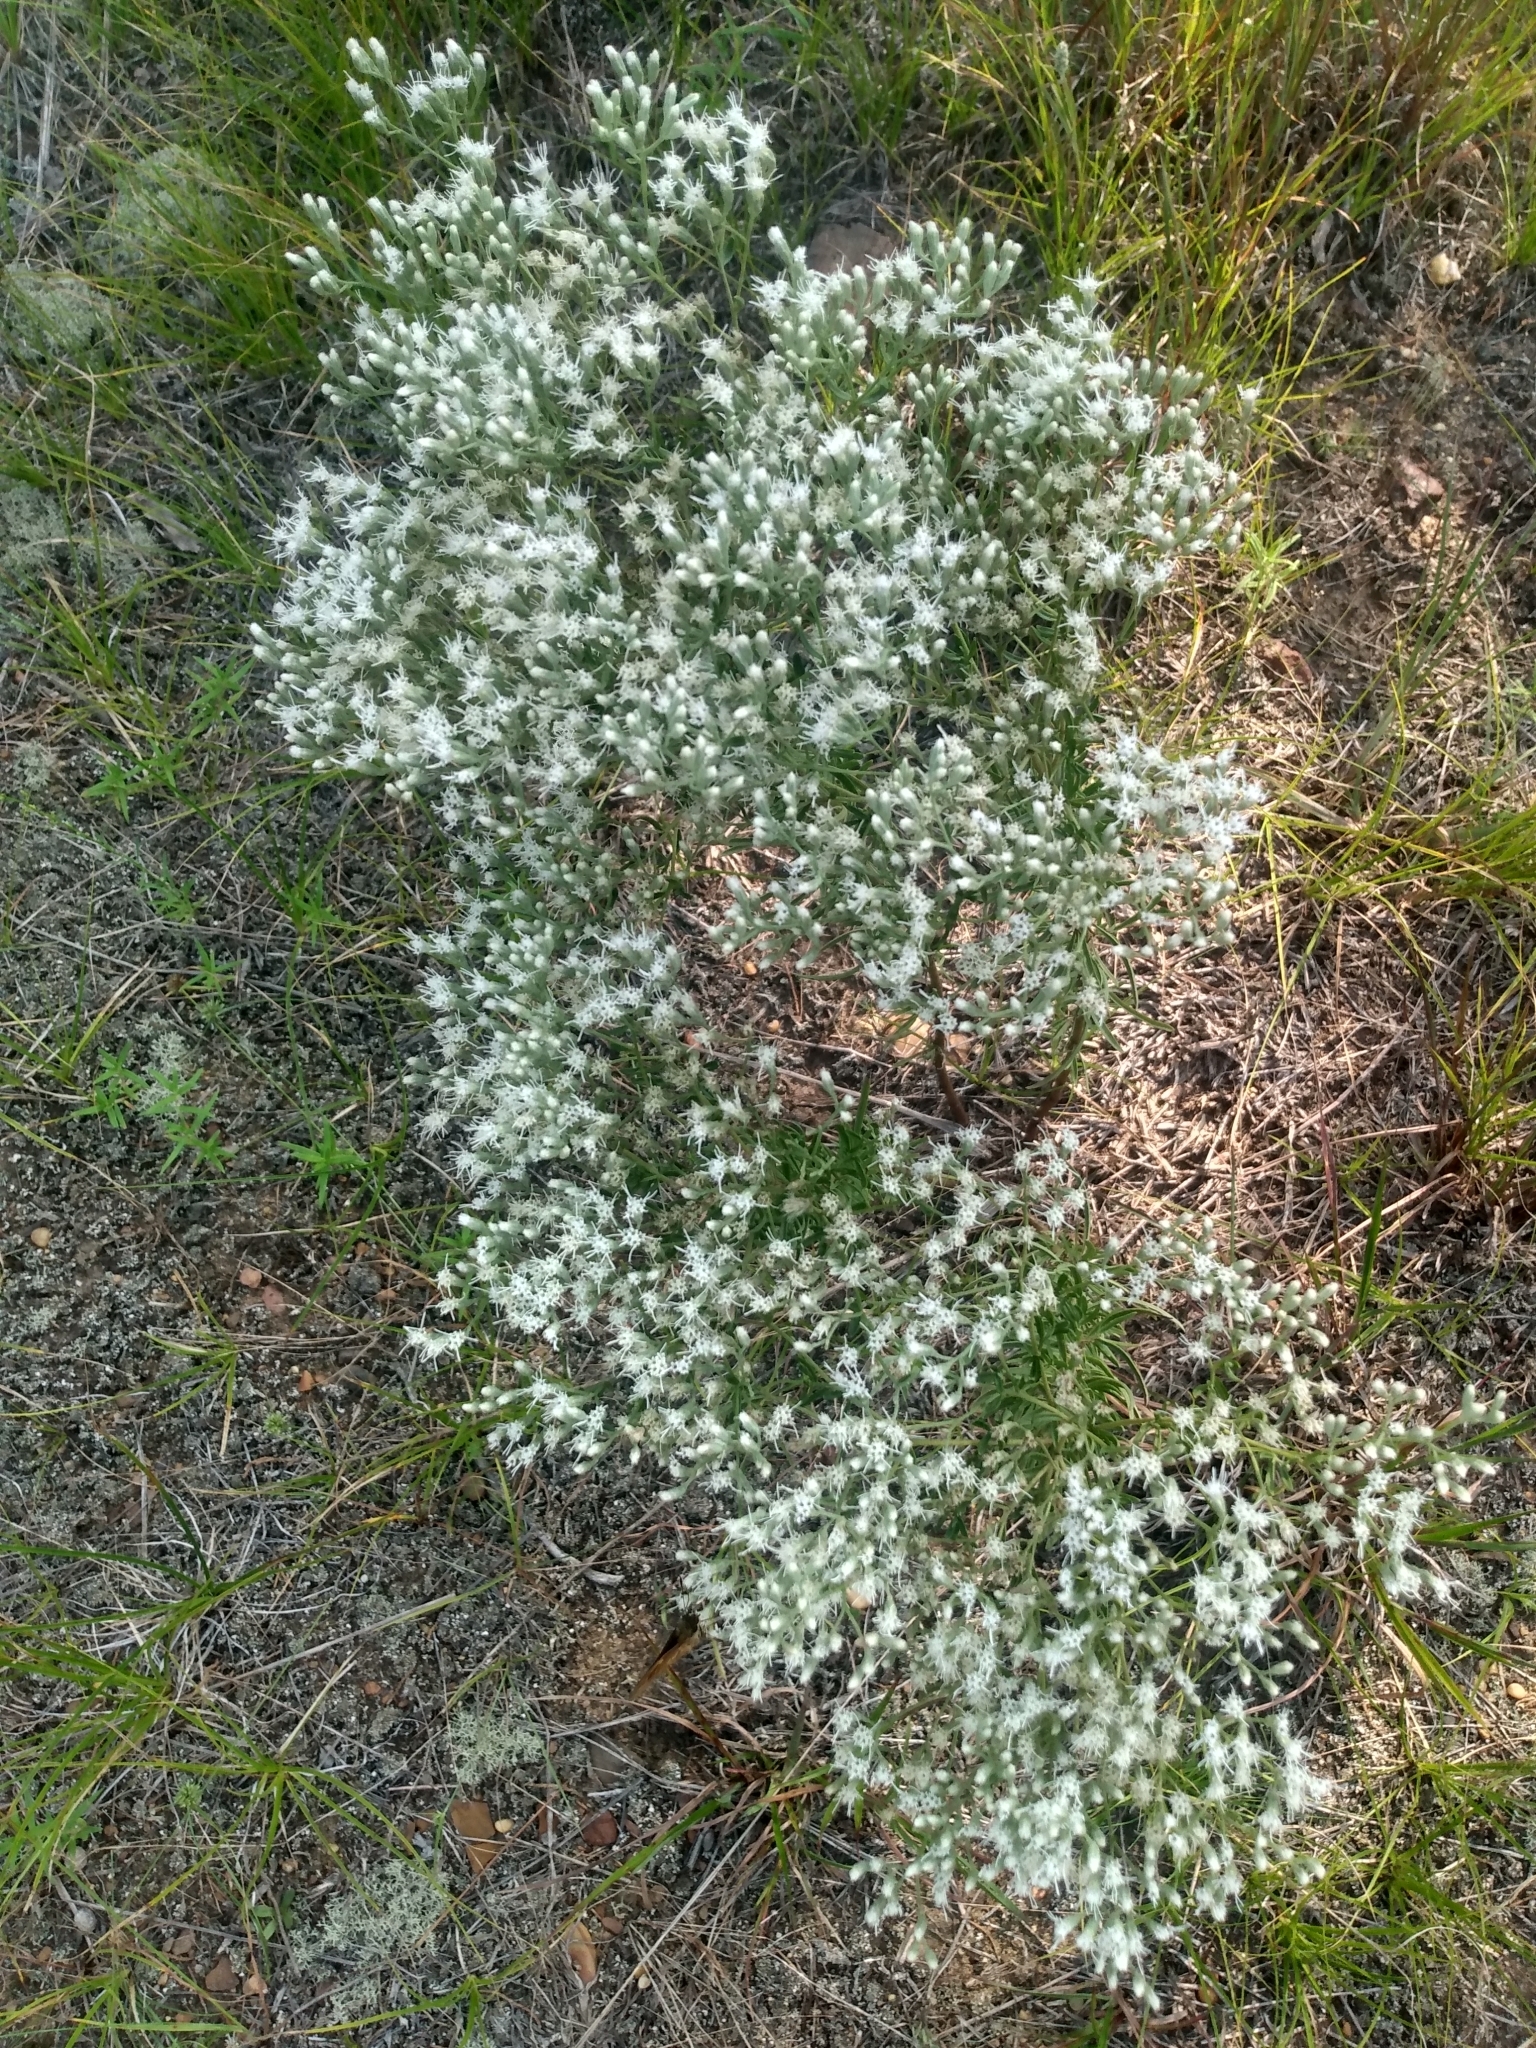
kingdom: Plantae
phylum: Tracheophyta
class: Magnoliopsida
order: Asterales
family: Asteraceae
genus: Eupatorium
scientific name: Eupatorium
